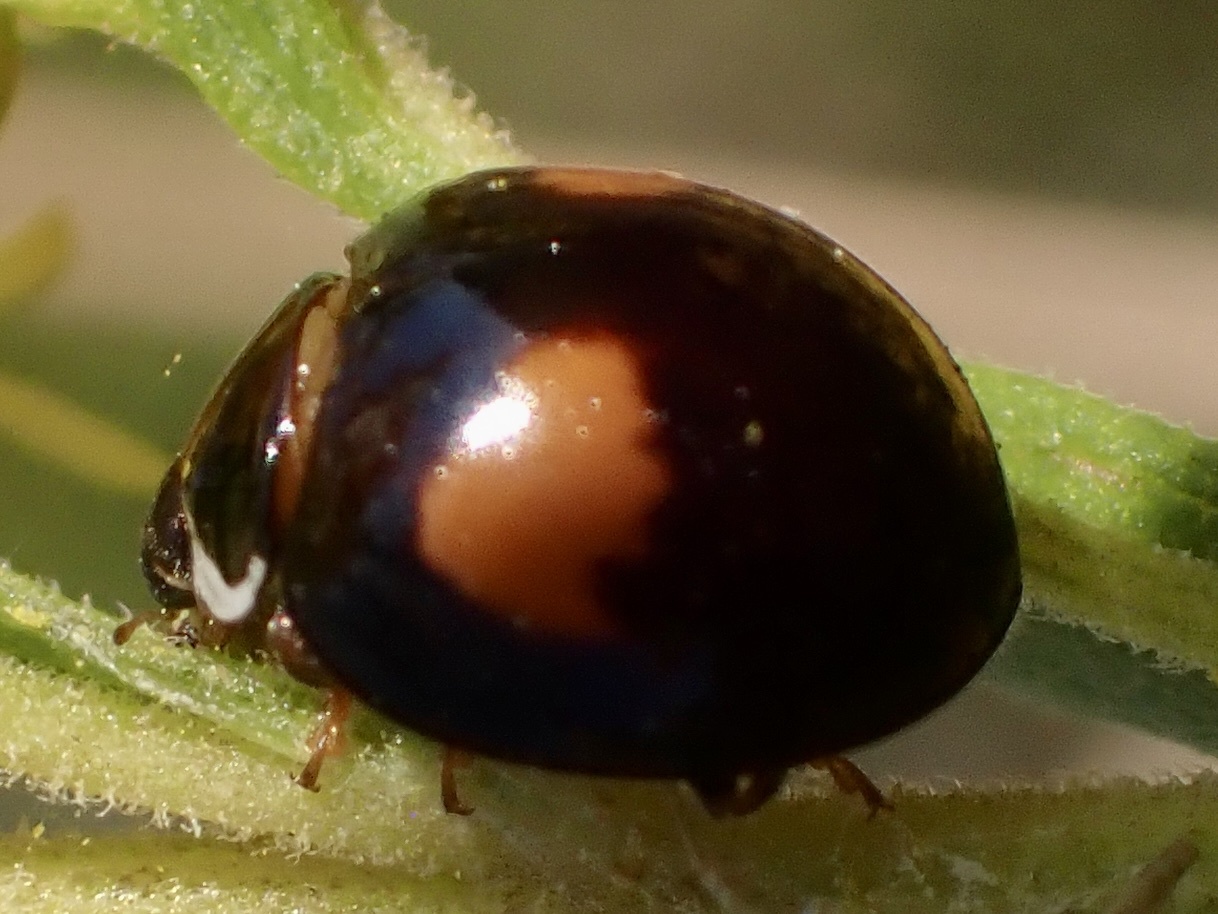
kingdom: Animalia
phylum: Arthropoda
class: Insecta
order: Coleoptera
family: Coccinellidae
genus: Olla
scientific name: Olla v-nigrum
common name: Ashy gray lady beetle
